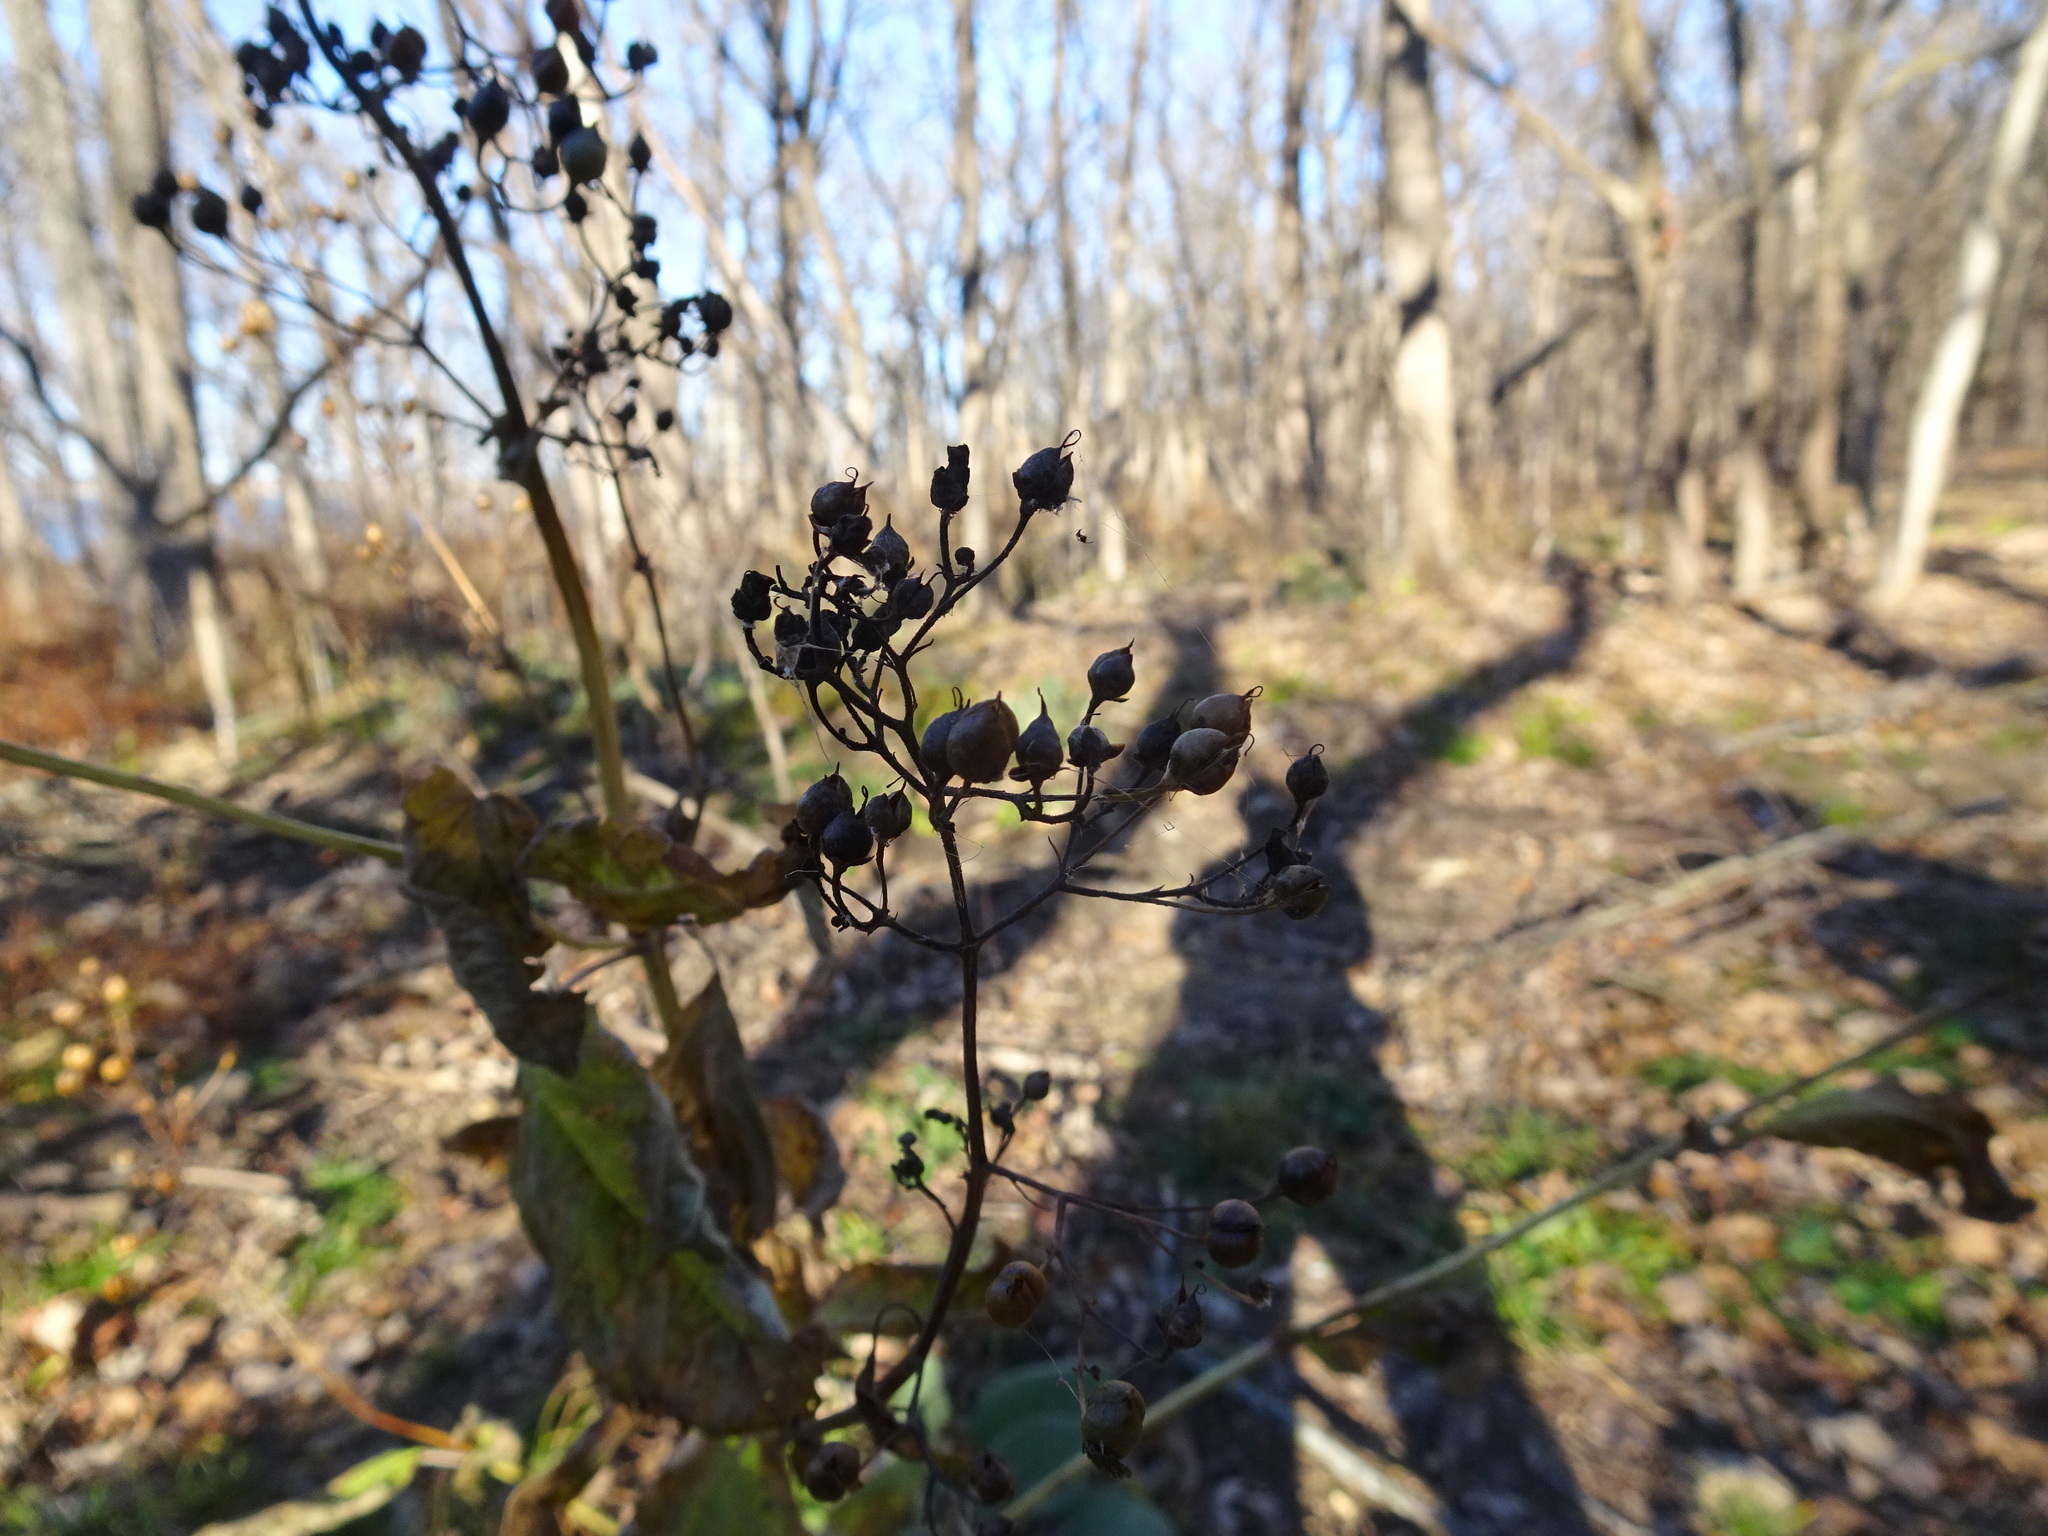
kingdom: Plantae
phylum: Tracheophyta
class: Magnoliopsida
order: Lamiales
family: Scrophulariaceae
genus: Scrophularia
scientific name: Scrophularia marilandica
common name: Eastern figwort
